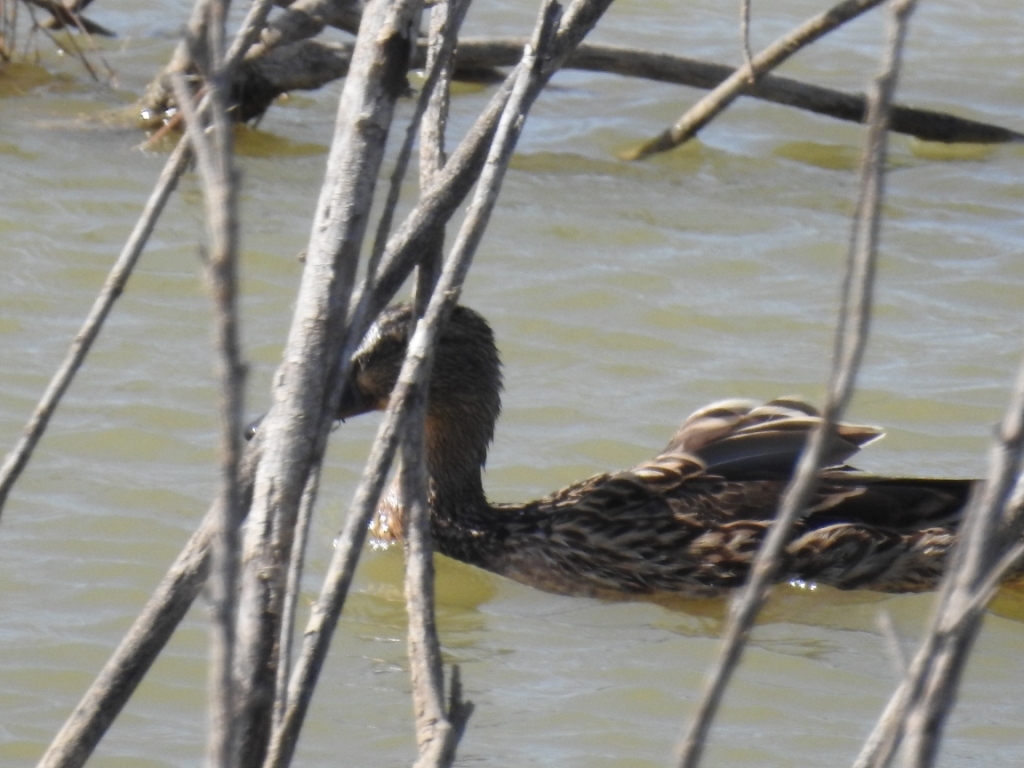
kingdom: Animalia
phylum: Chordata
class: Aves
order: Anseriformes
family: Anatidae
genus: Anas
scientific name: Anas platyrhynchos
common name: Mallard
